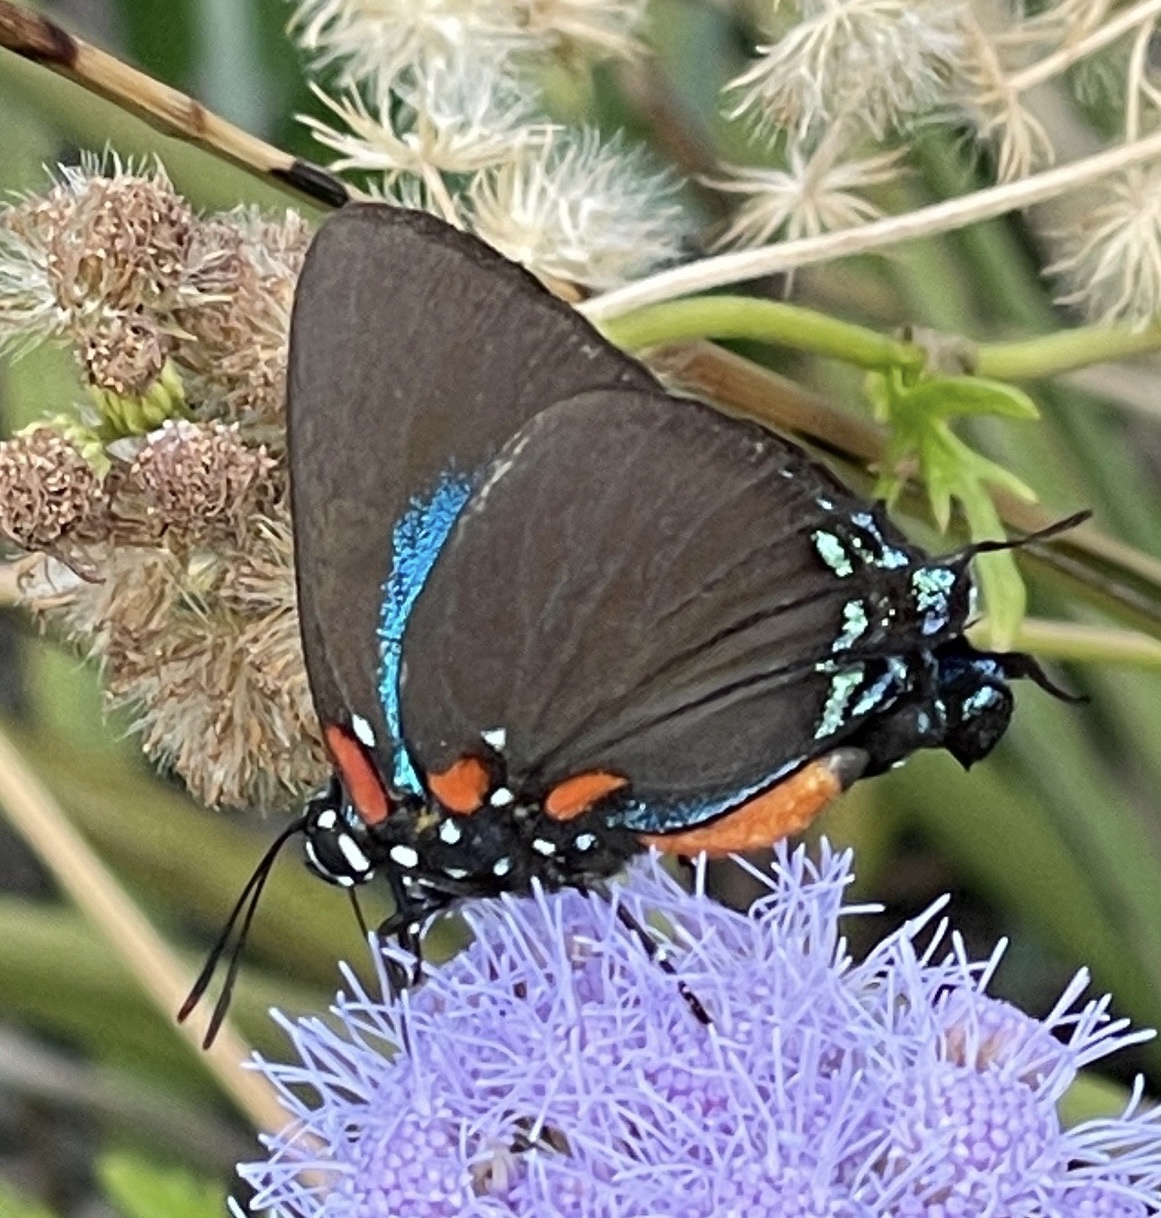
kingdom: Animalia
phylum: Arthropoda
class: Insecta
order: Lepidoptera
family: Lycaenidae
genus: Atlides
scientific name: Atlides halesus
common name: Great purple hairstreak
